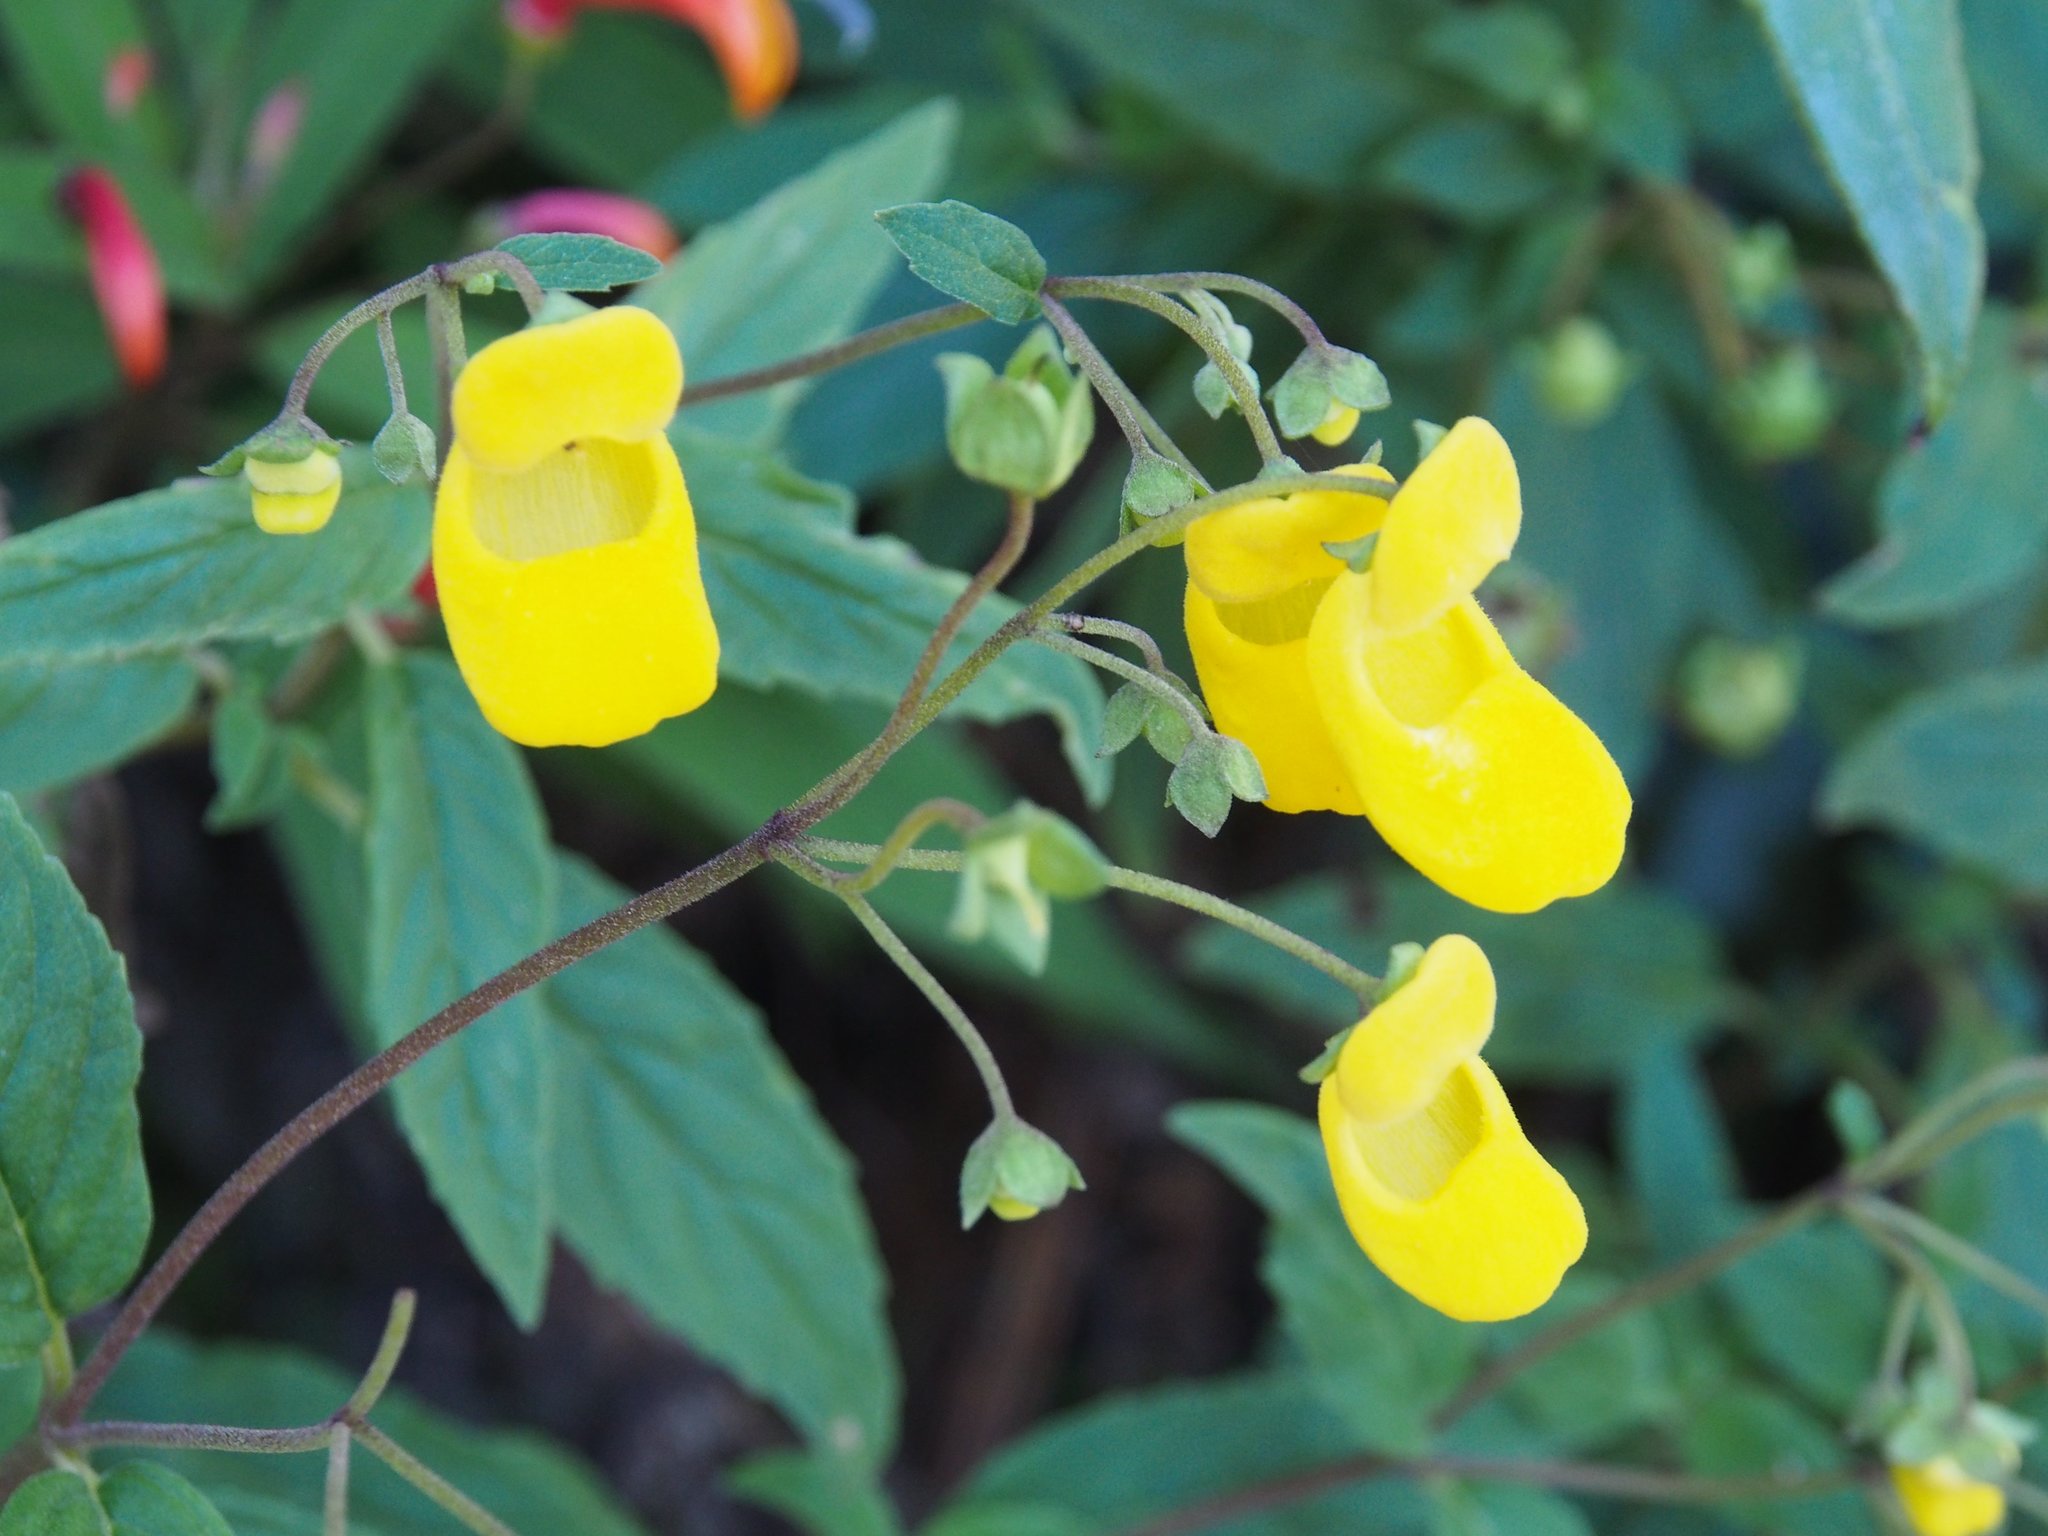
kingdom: Plantae
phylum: Tracheophyta
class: Magnoliopsida
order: Lamiales
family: Calceolariaceae
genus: Calceolaria
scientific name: Calceolaria irazuensis
